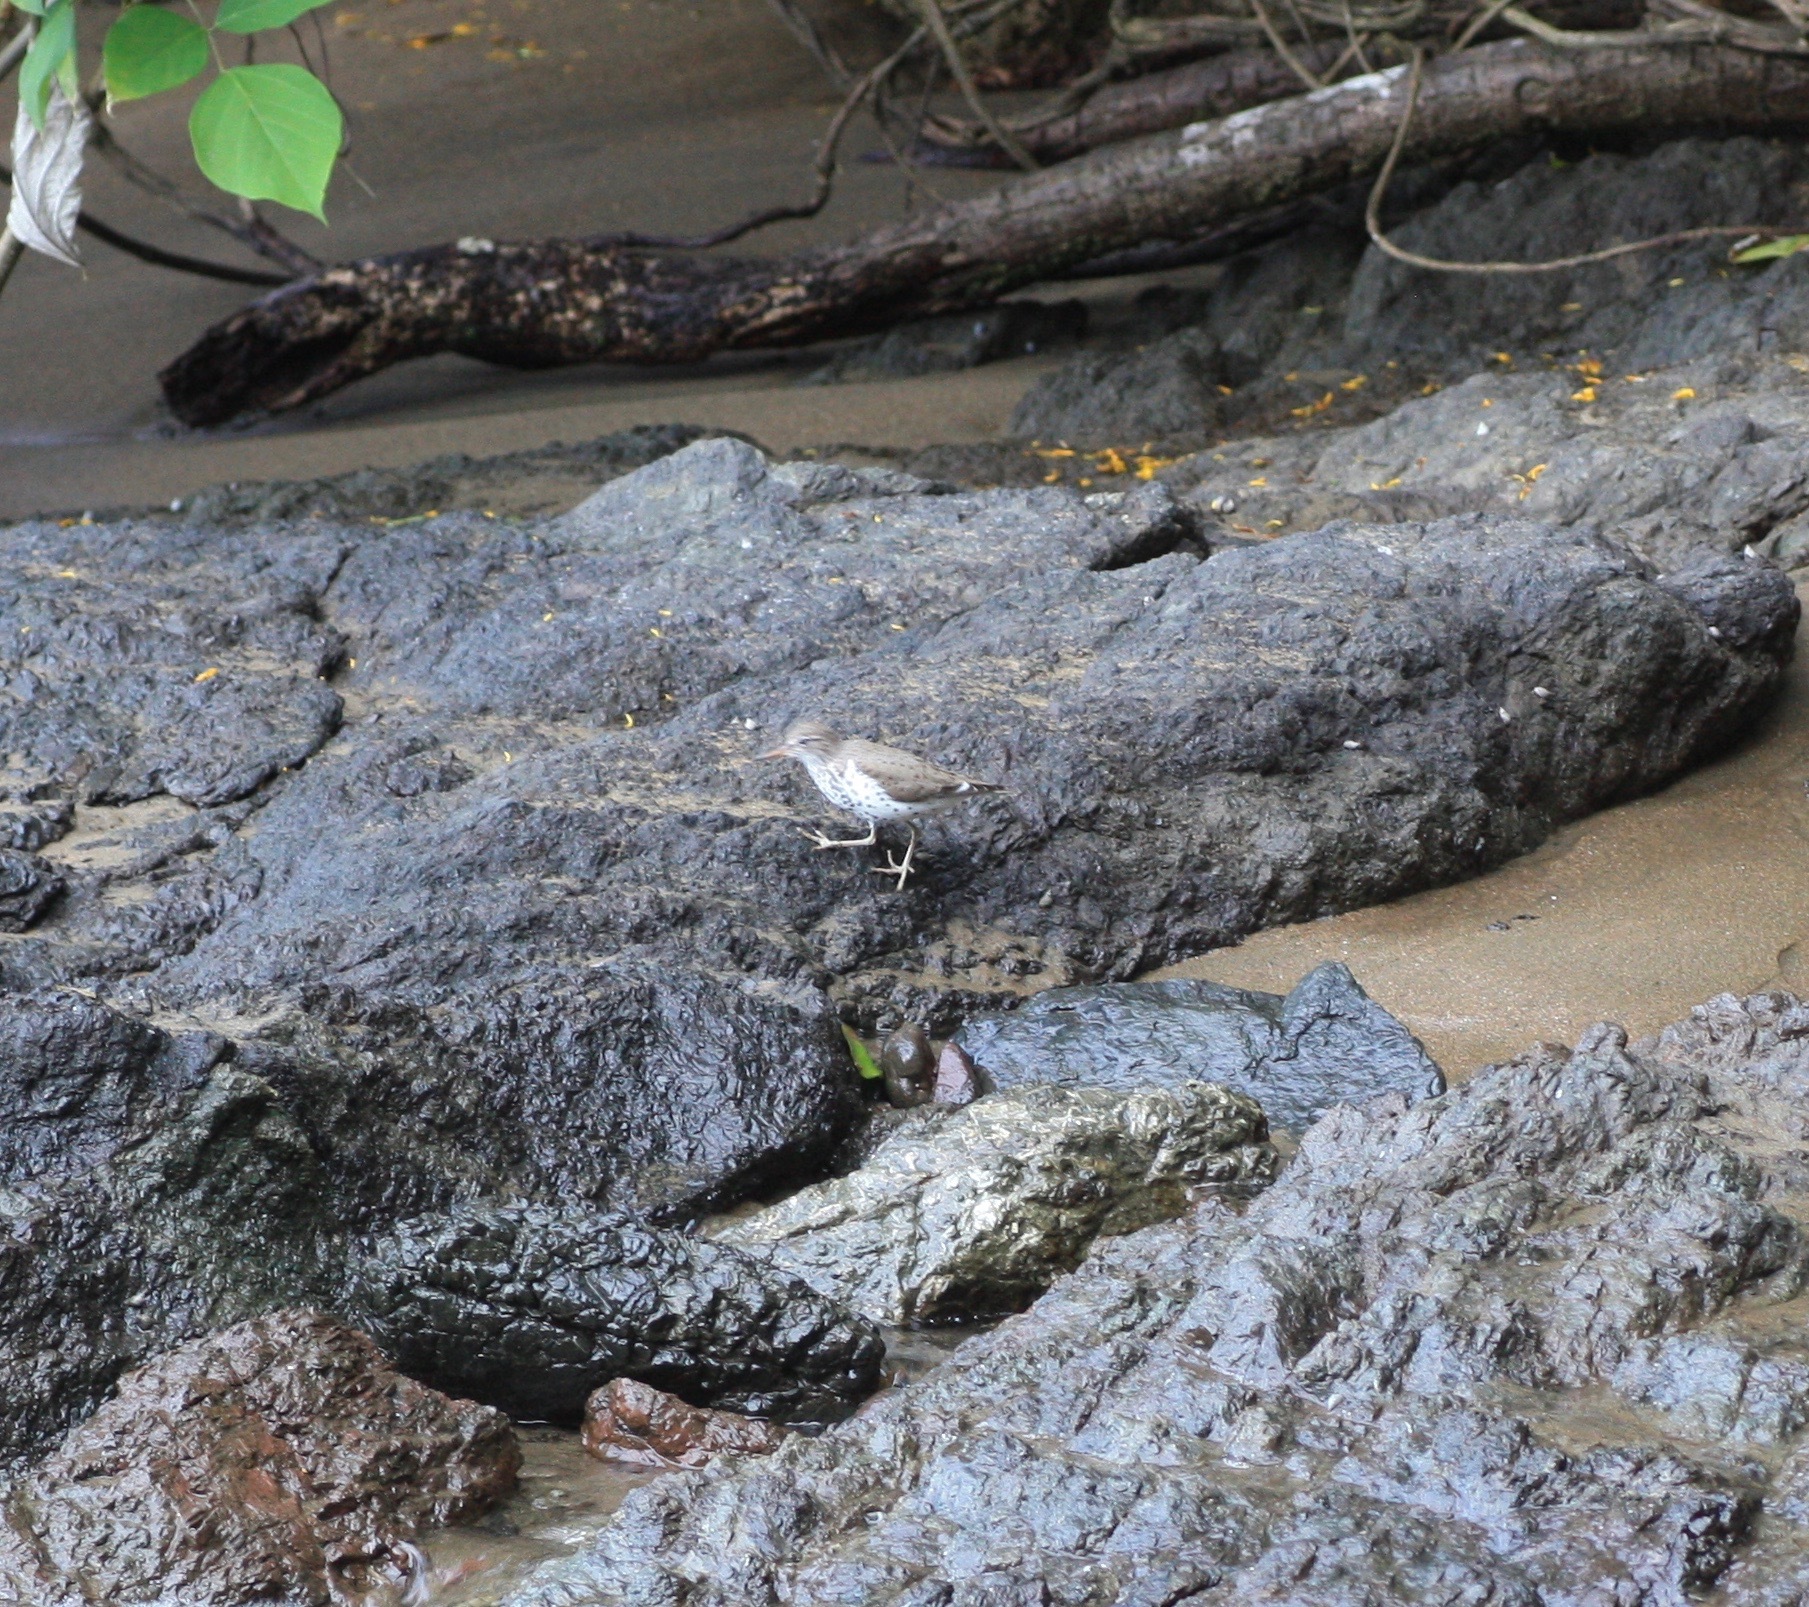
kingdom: Animalia
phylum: Chordata
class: Aves
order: Charadriiformes
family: Scolopacidae
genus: Actitis
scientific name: Actitis macularius
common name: Spotted sandpiper
